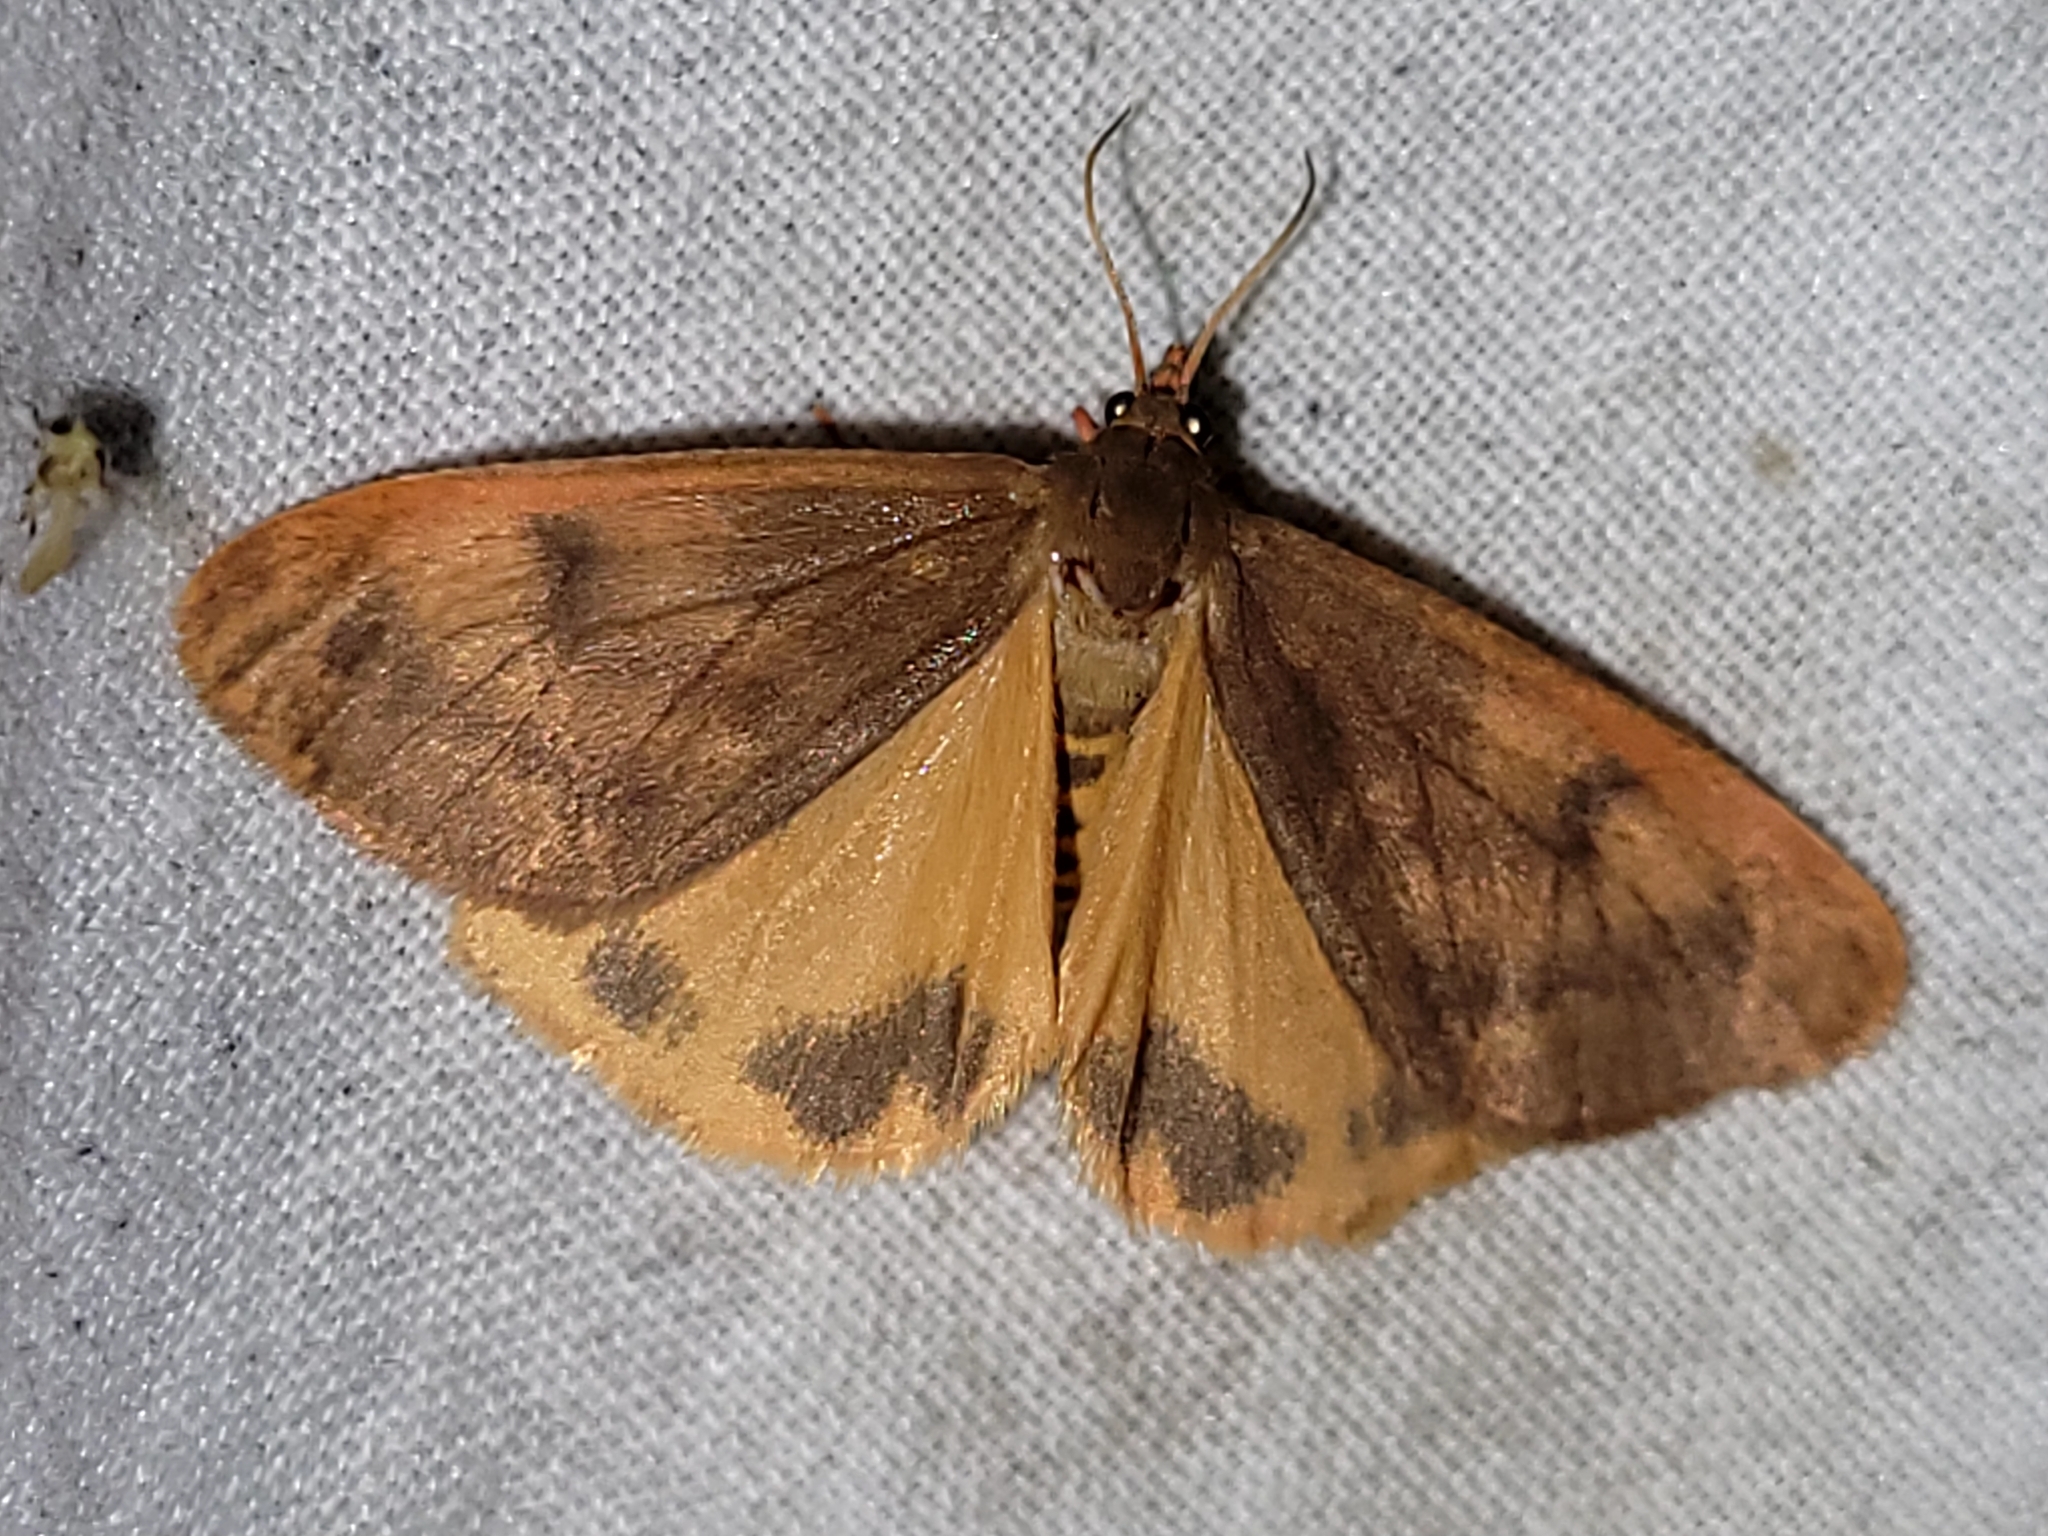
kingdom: Animalia
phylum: Arthropoda
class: Insecta
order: Lepidoptera
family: Erebidae
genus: Virbia
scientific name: Virbia ferruginosa
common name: Rusty virbia moth
